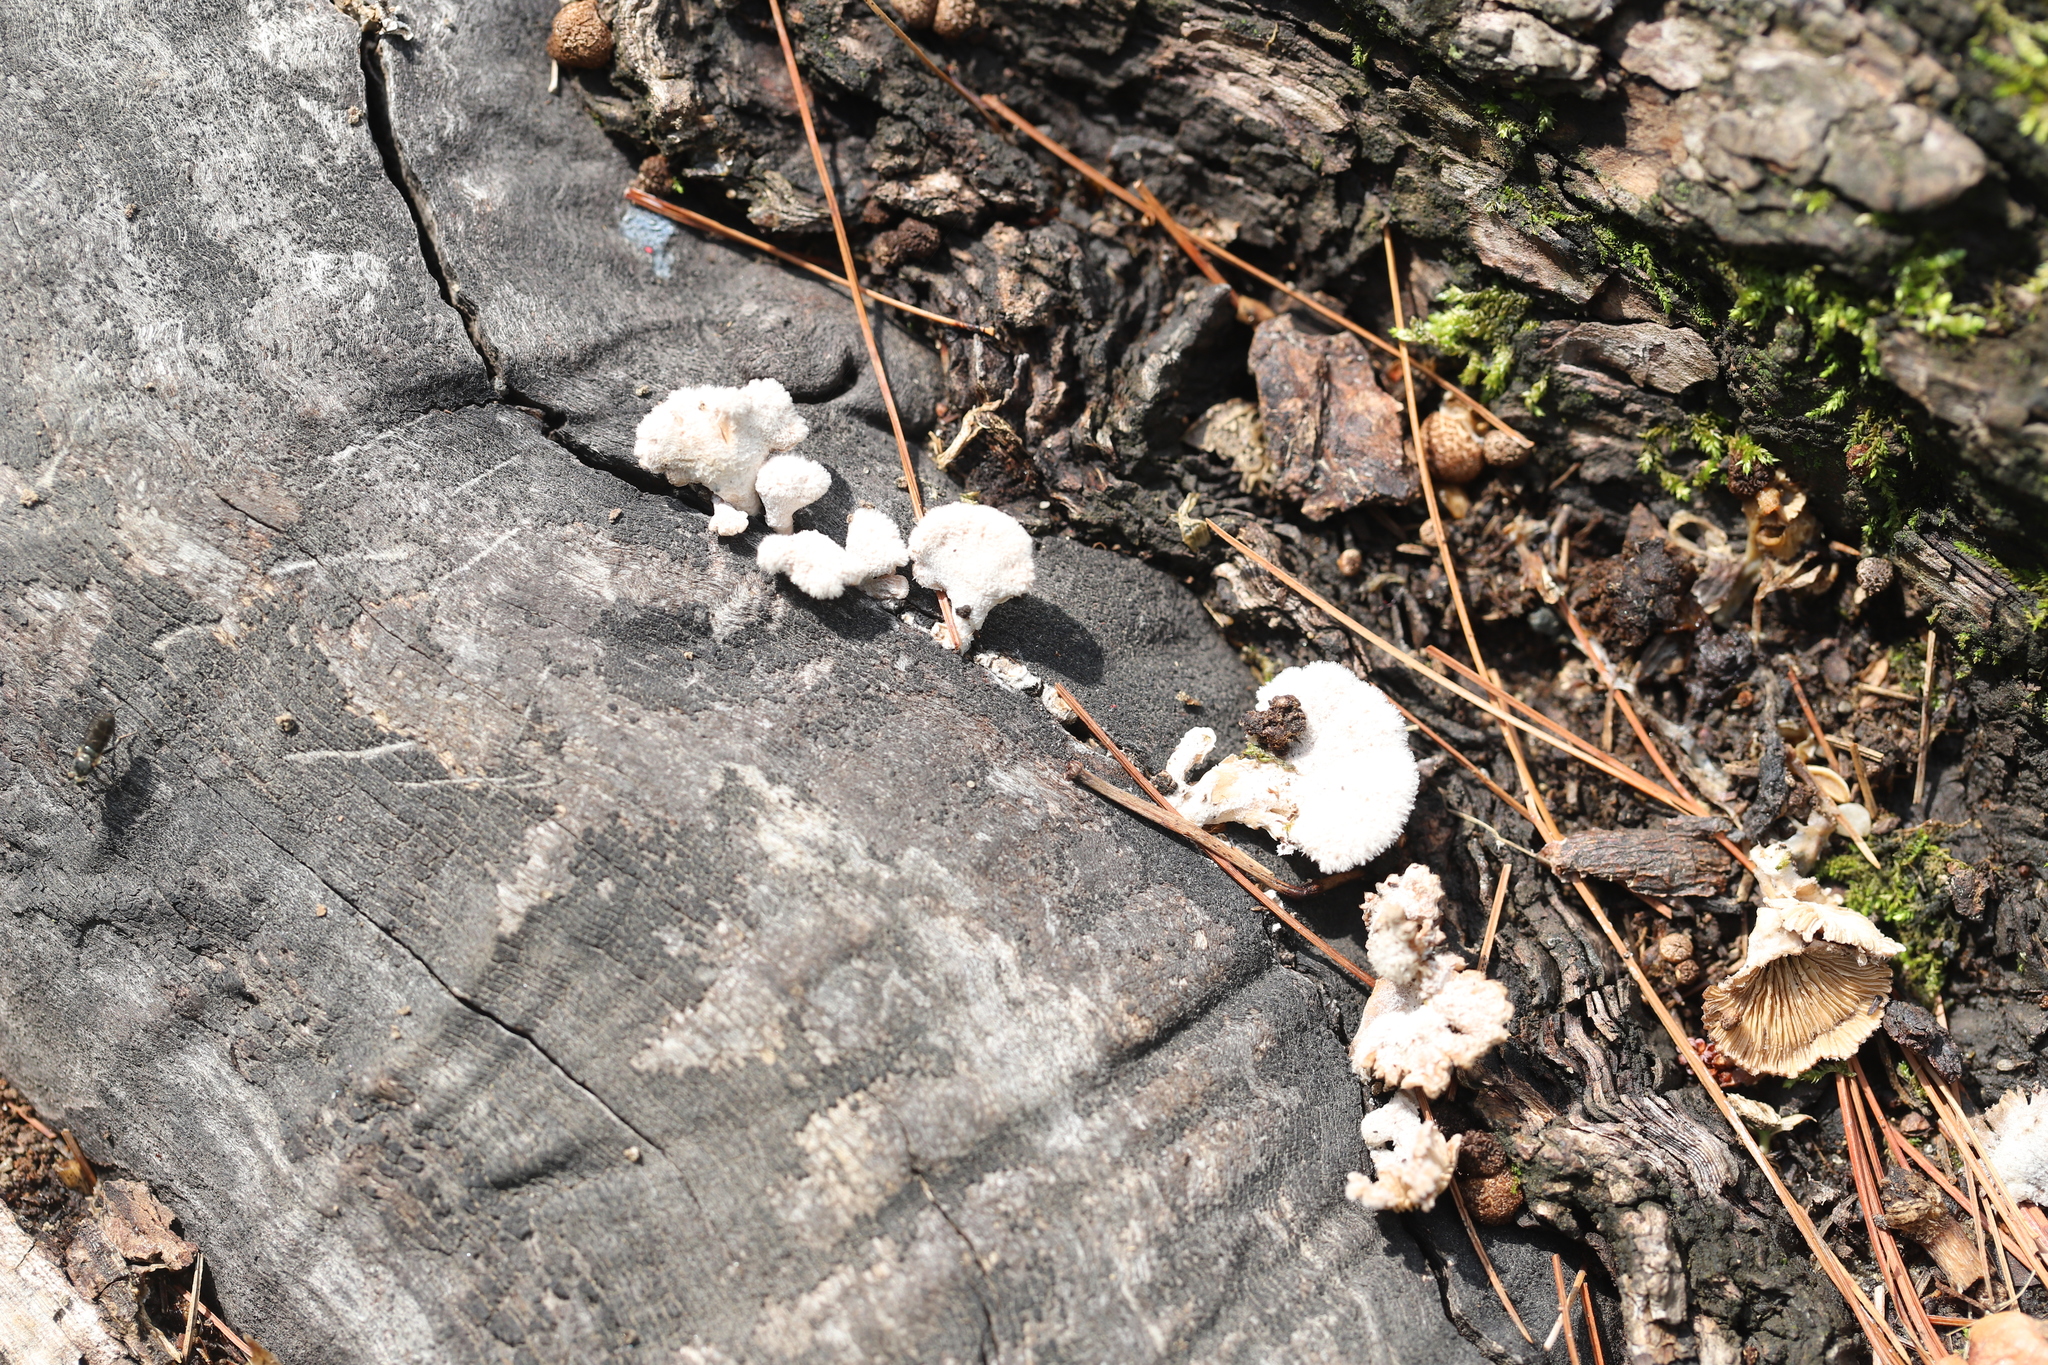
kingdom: Fungi
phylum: Basidiomycota
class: Agaricomycetes
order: Agaricales
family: Schizophyllaceae
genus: Schizophyllum
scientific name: Schizophyllum commune
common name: Common porecrust
